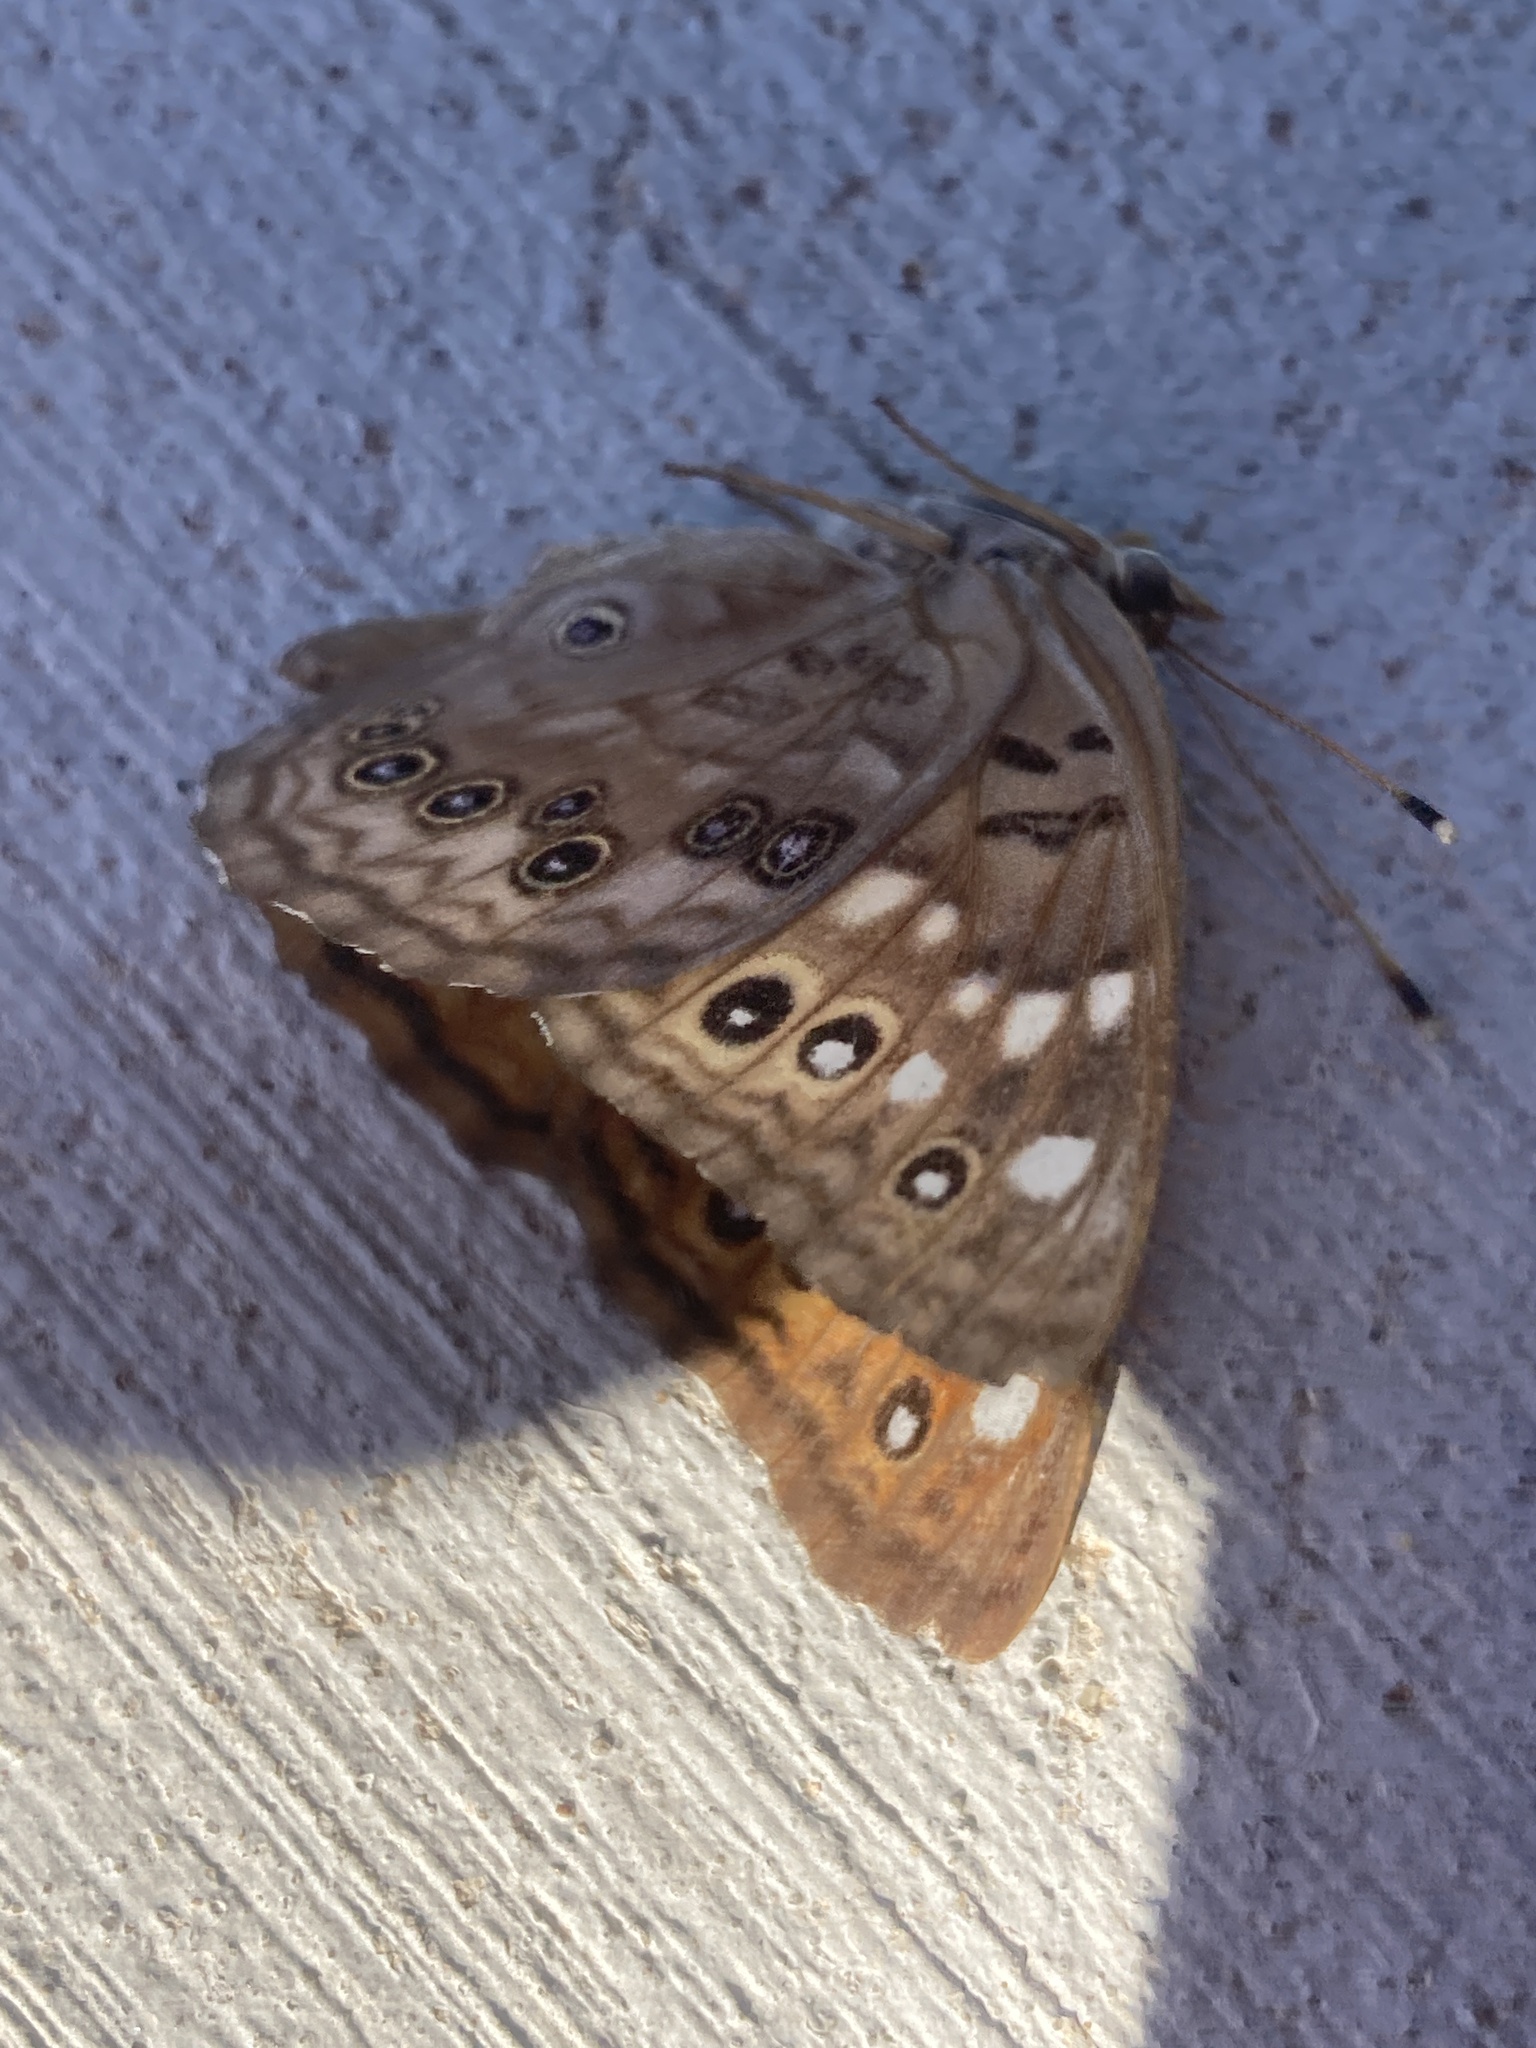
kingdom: Animalia
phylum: Arthropoda
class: Insecta
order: Lepidoptera
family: Nymphalidae
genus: Asterocampa
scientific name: Asterocampa celtis
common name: Hackberry emperor
